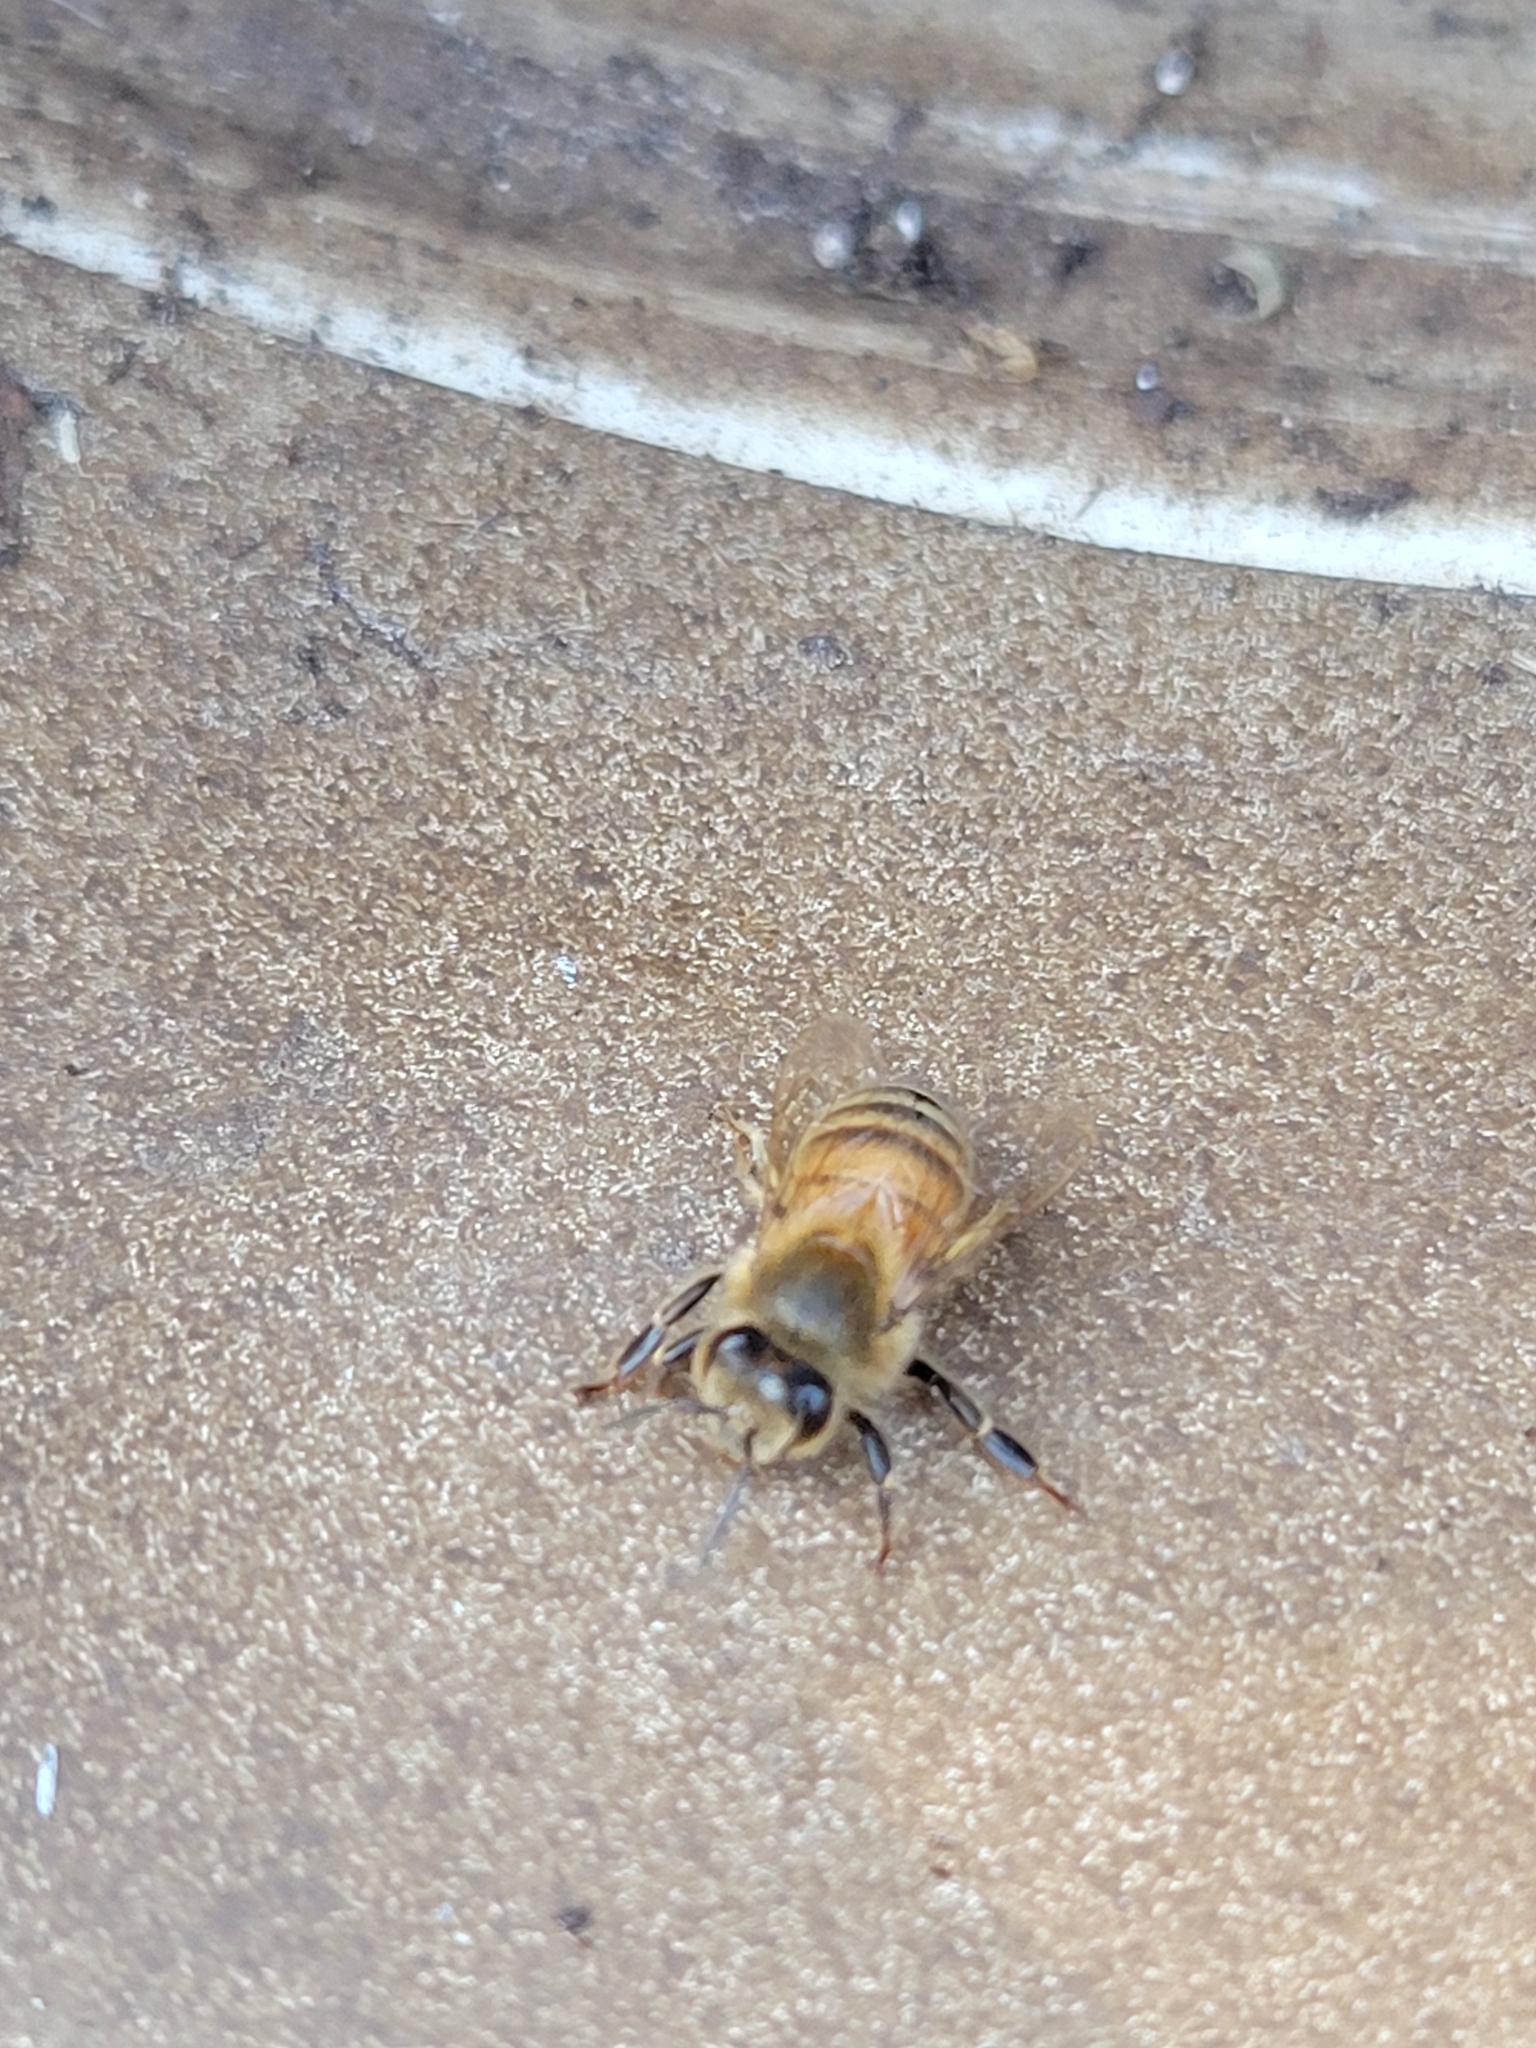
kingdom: Animalia
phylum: Arthropoda
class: Insecta
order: Hymenoptera
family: Apidae
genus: Apis
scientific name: Apis mellifera
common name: Honey bee
